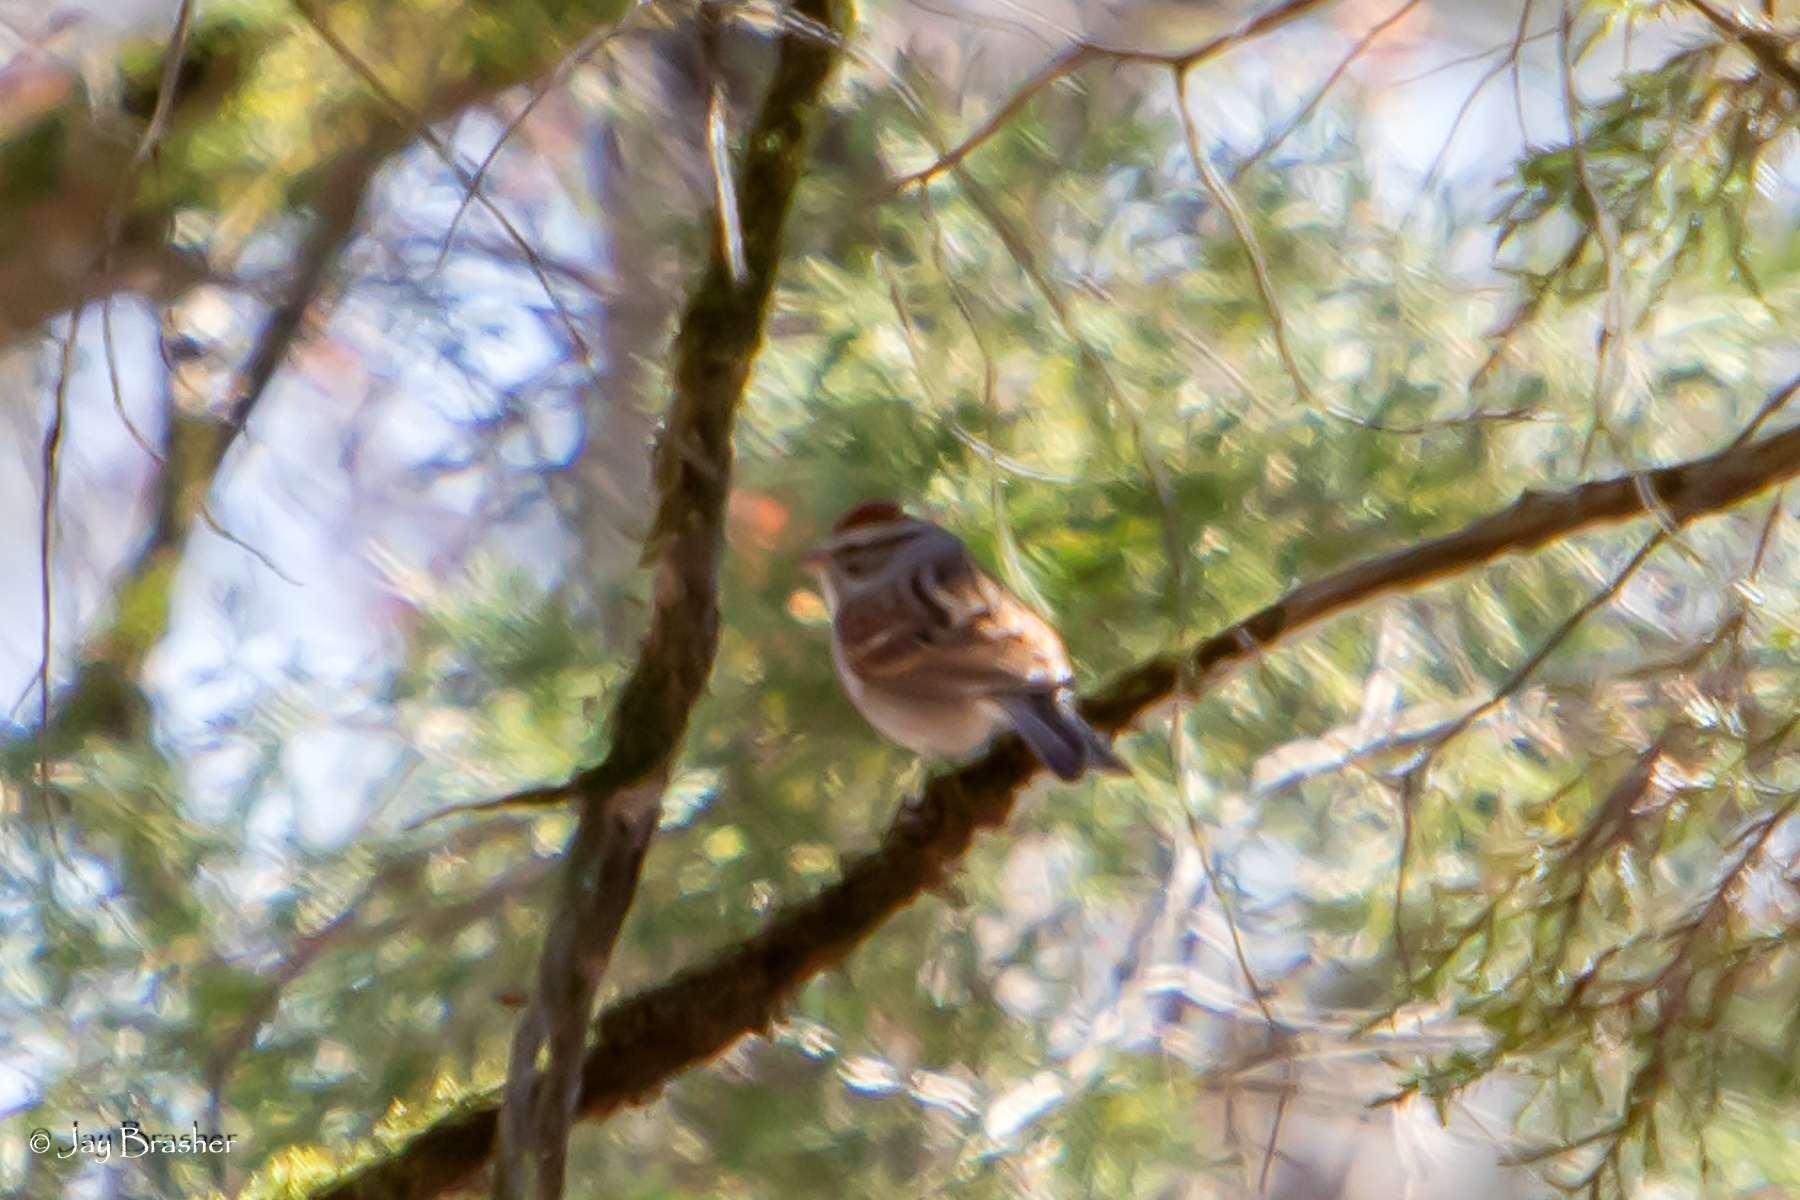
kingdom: Animalia
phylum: Chordata
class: Aves
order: Passeriformes
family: Passerellidae
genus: Spizella
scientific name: Spizella passerina
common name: Chipping sparrow
